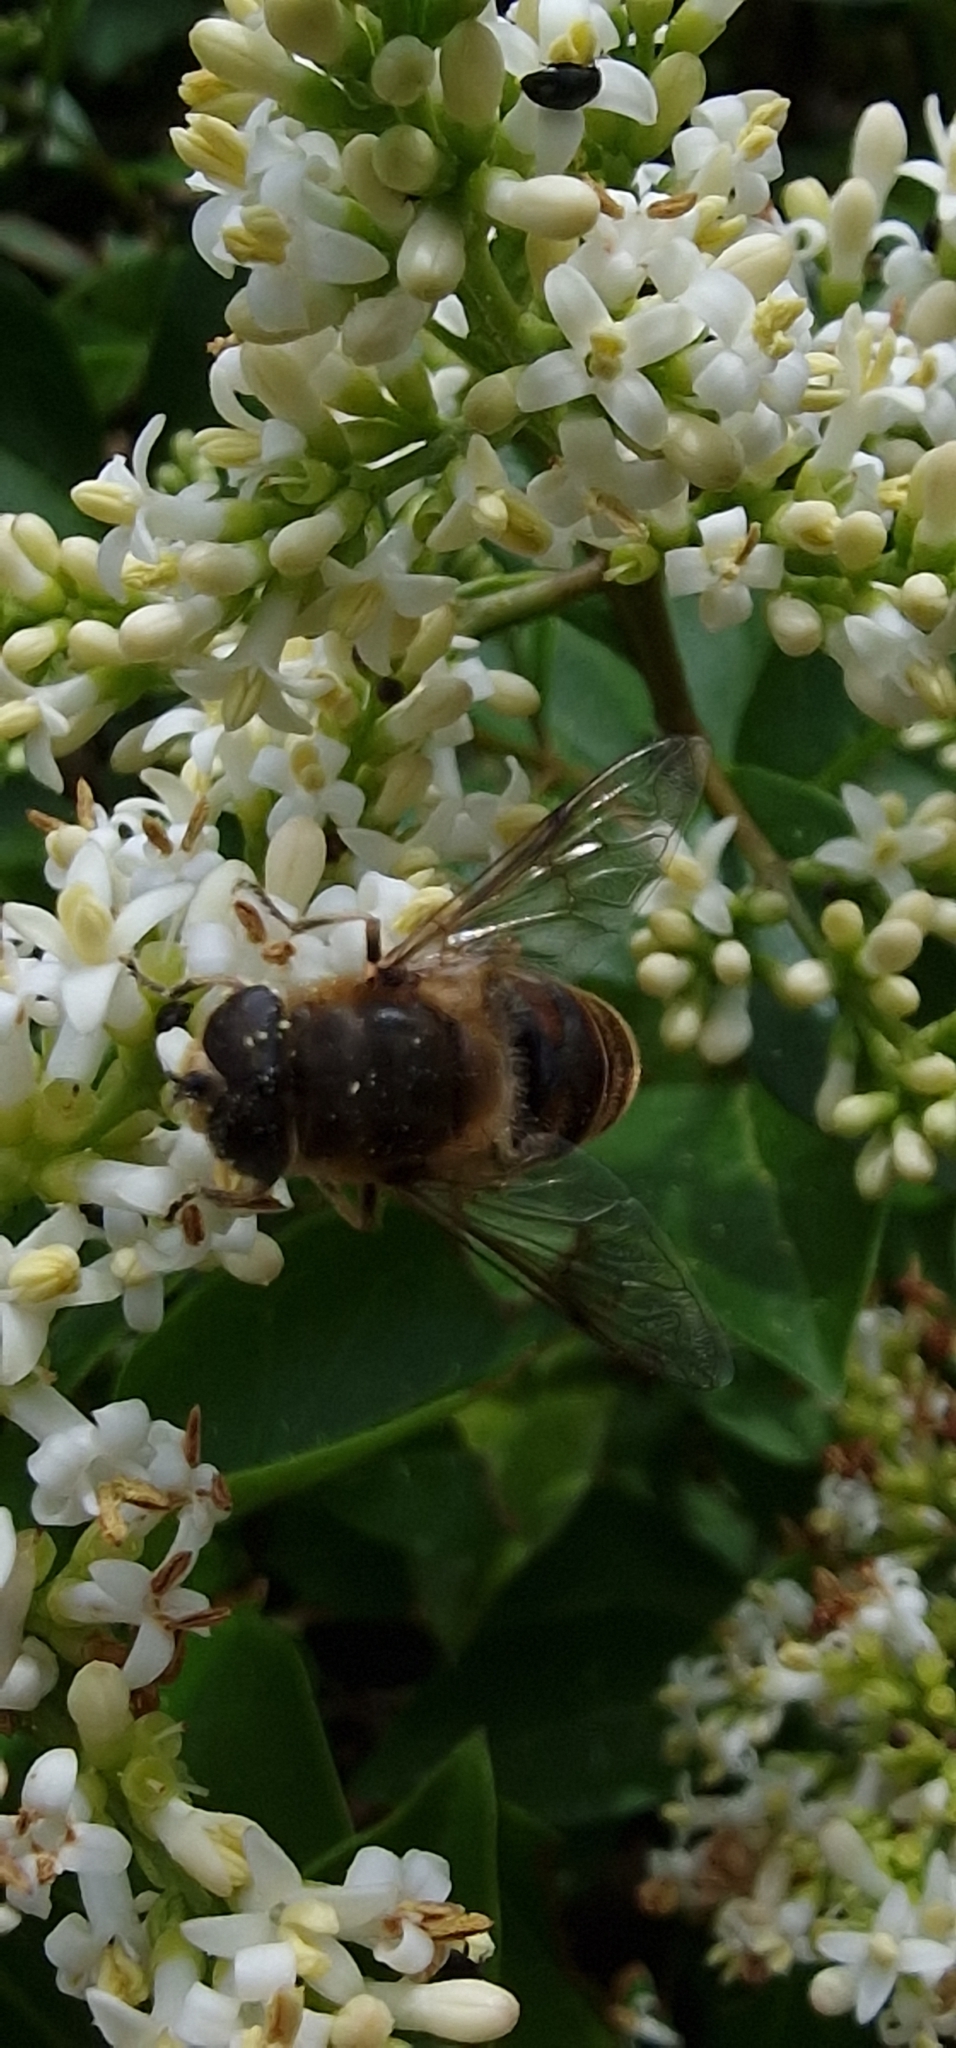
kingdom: Animalia
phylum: Arthropoda
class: Insecta
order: Diptera
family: Syrphidae
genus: Eristalis
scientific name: Eristalis tenax
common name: Drone fly
